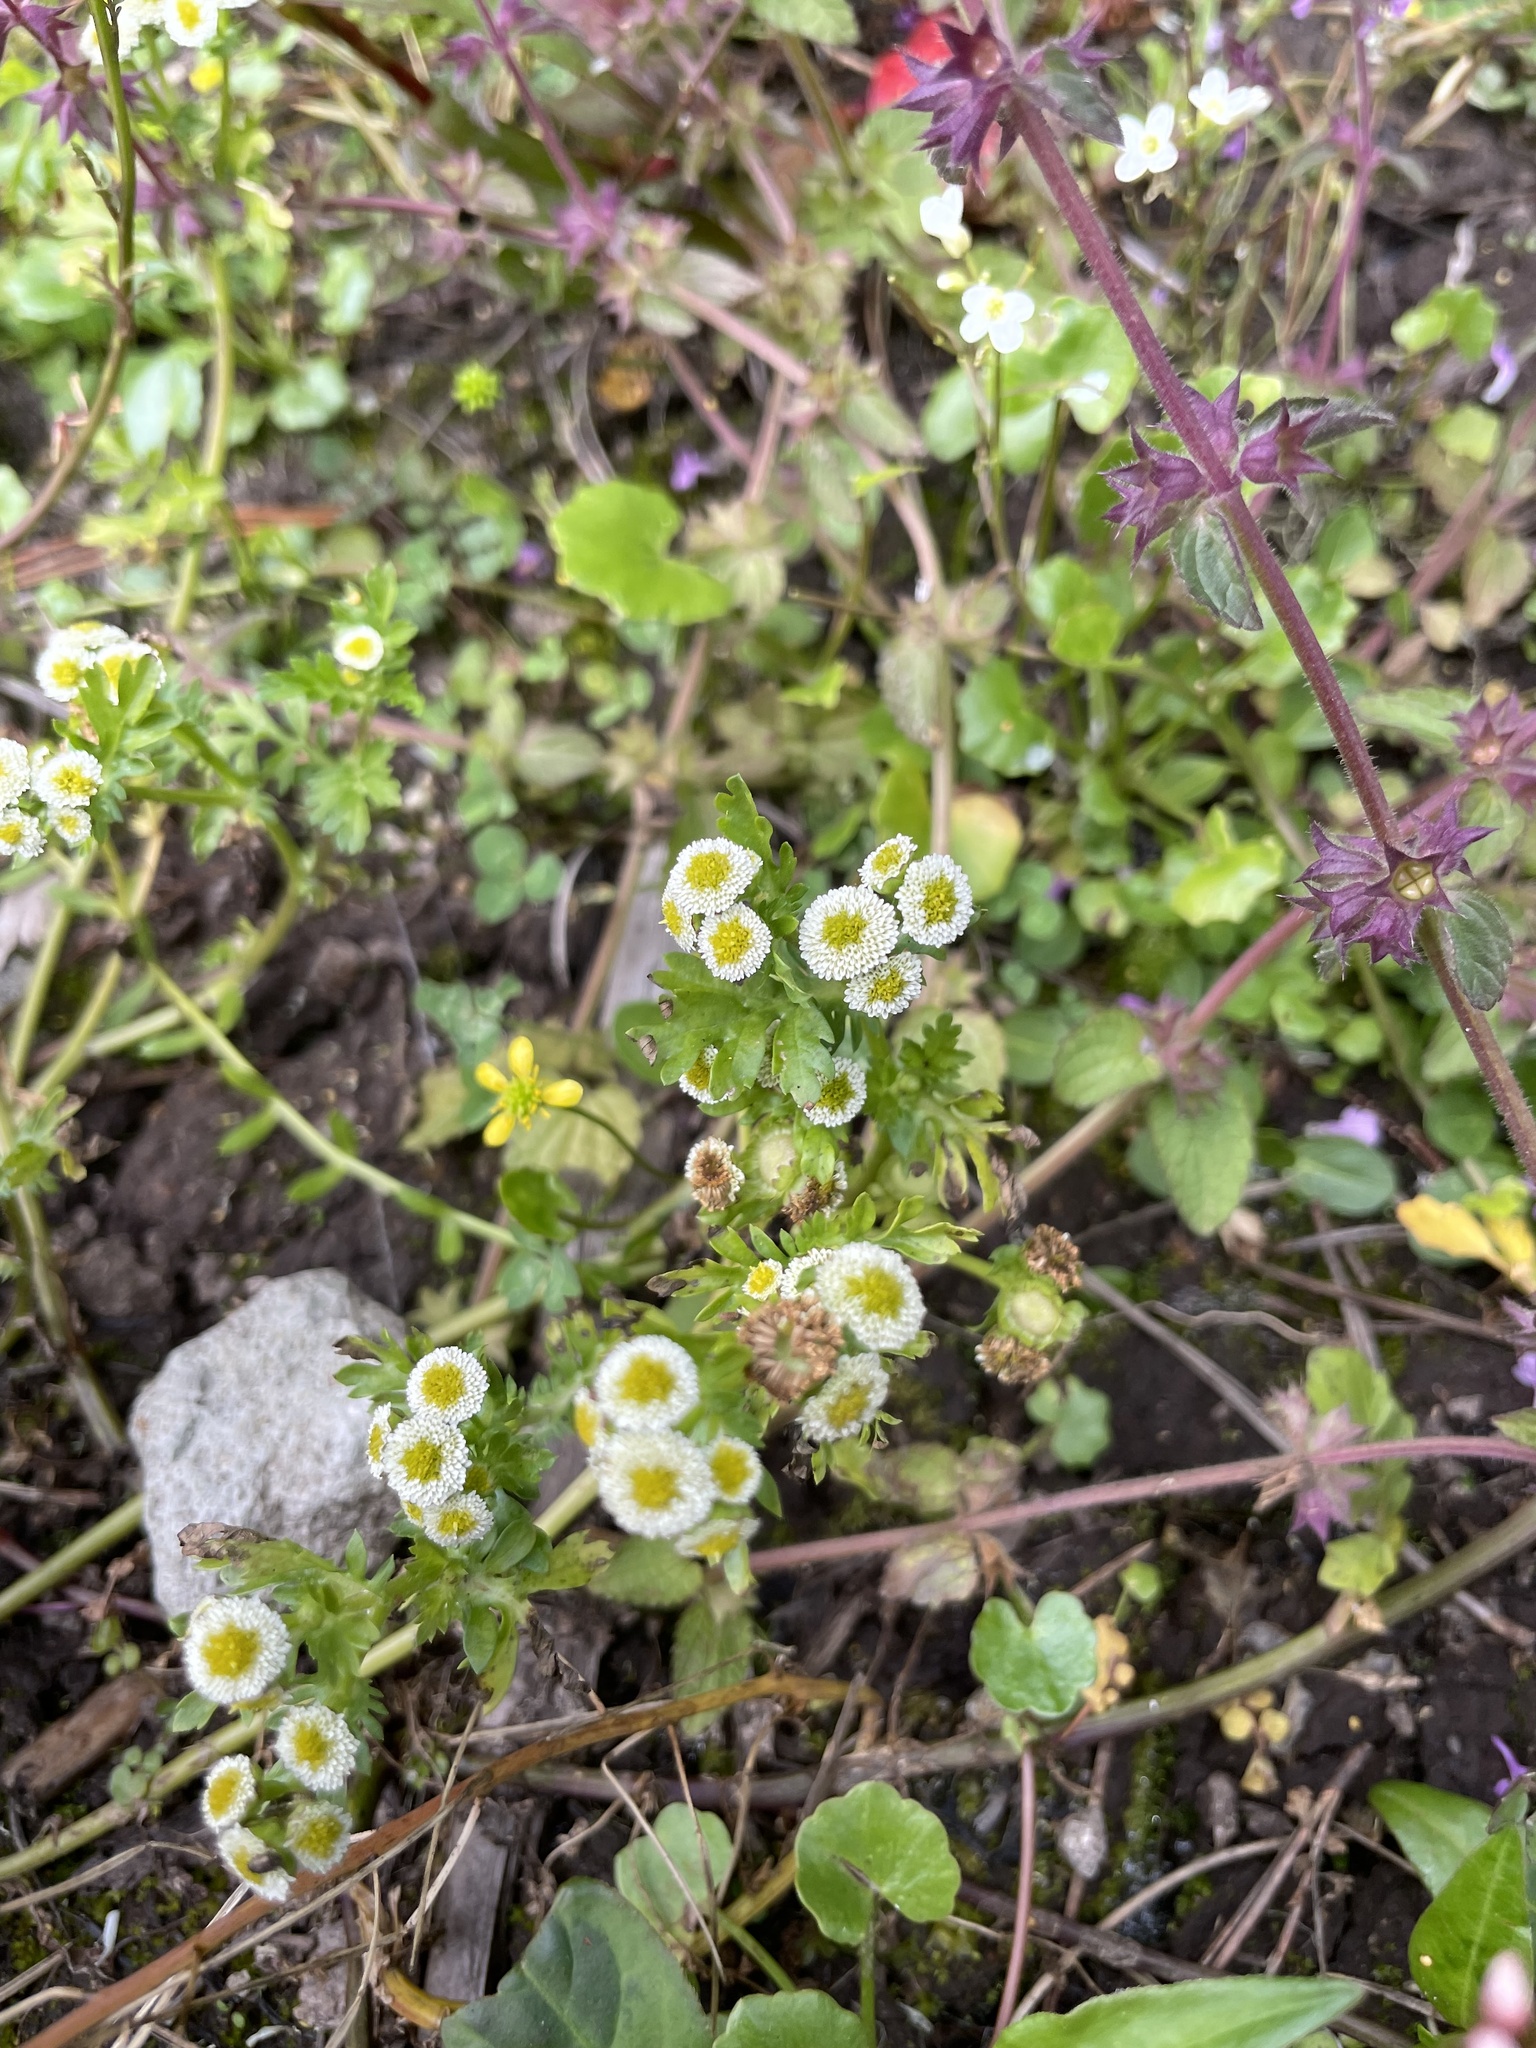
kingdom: Plantae
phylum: Tracheophyta
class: Magnoliopsida
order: Asterales
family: Asteraceae
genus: Plagiocheilus
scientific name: Plagiocheilus bogotensis
